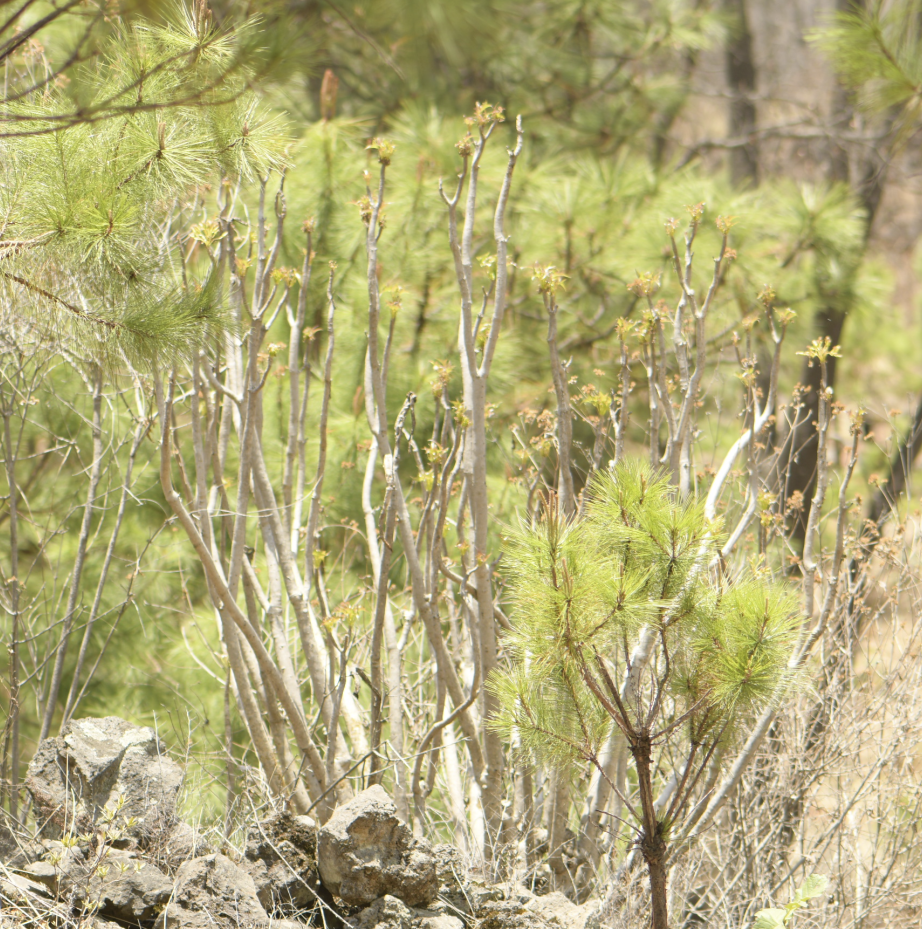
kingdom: Plantae
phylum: Tracheophyta
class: Magnoliopsida
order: Asterales
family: Asteraceae
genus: Pittocaulon
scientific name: Pittocaulon praecox
